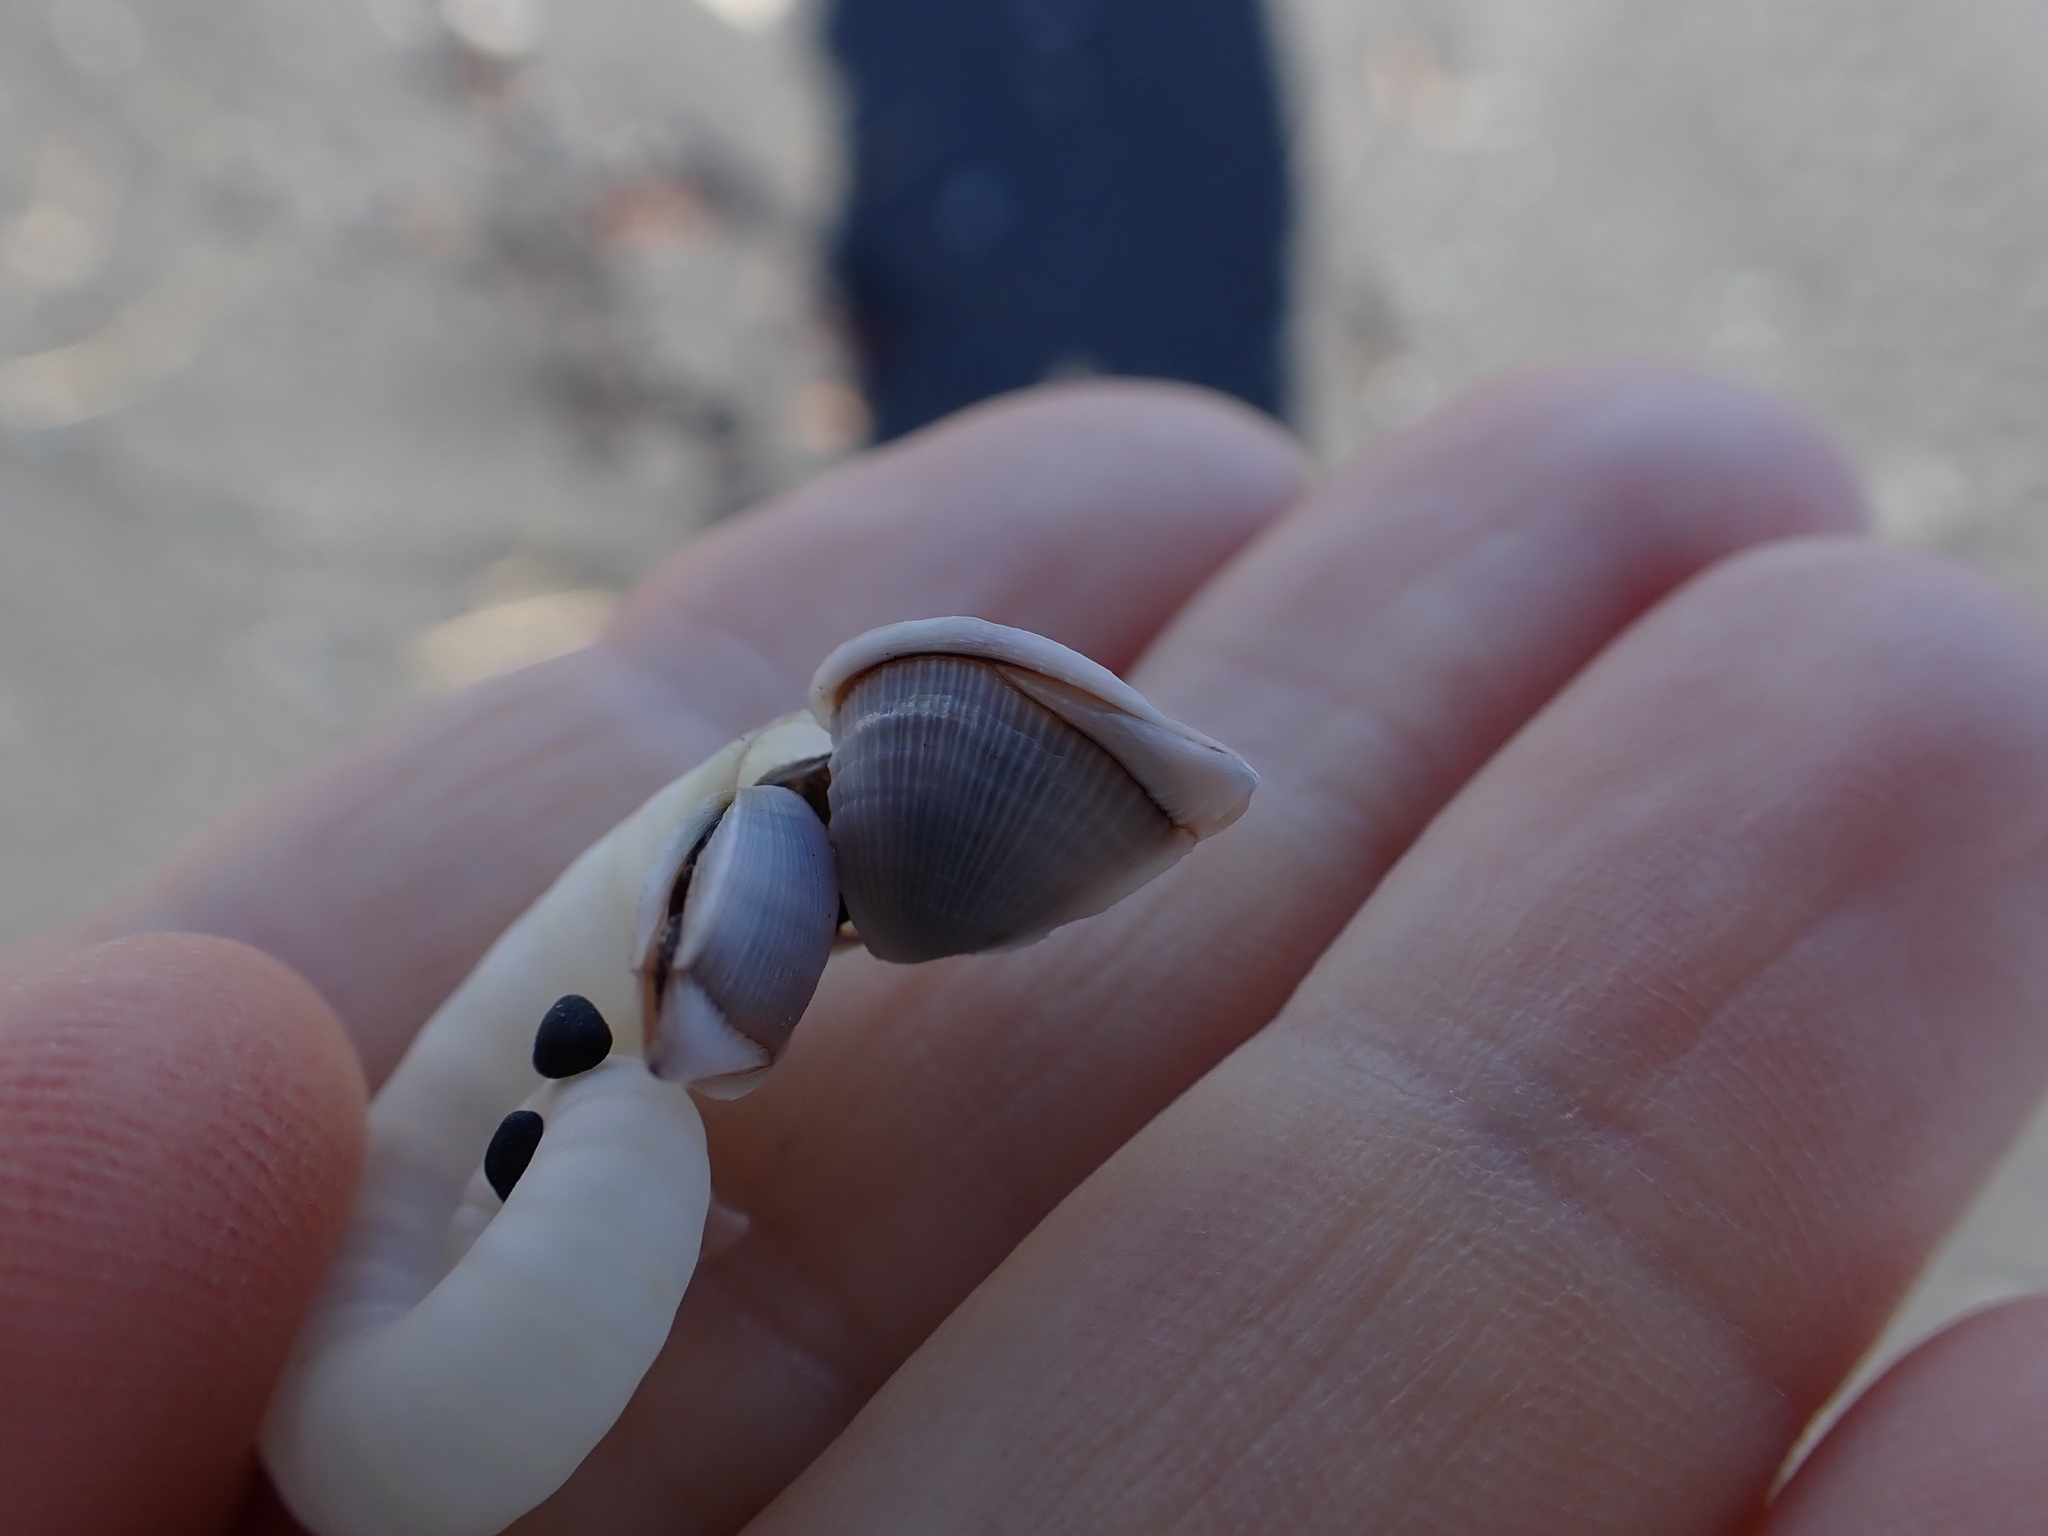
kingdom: Animalia
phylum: Arthropoda
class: Maxillopoda
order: Pedunculata
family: Lepadidae
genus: Lepas
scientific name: Lepas pectinata
